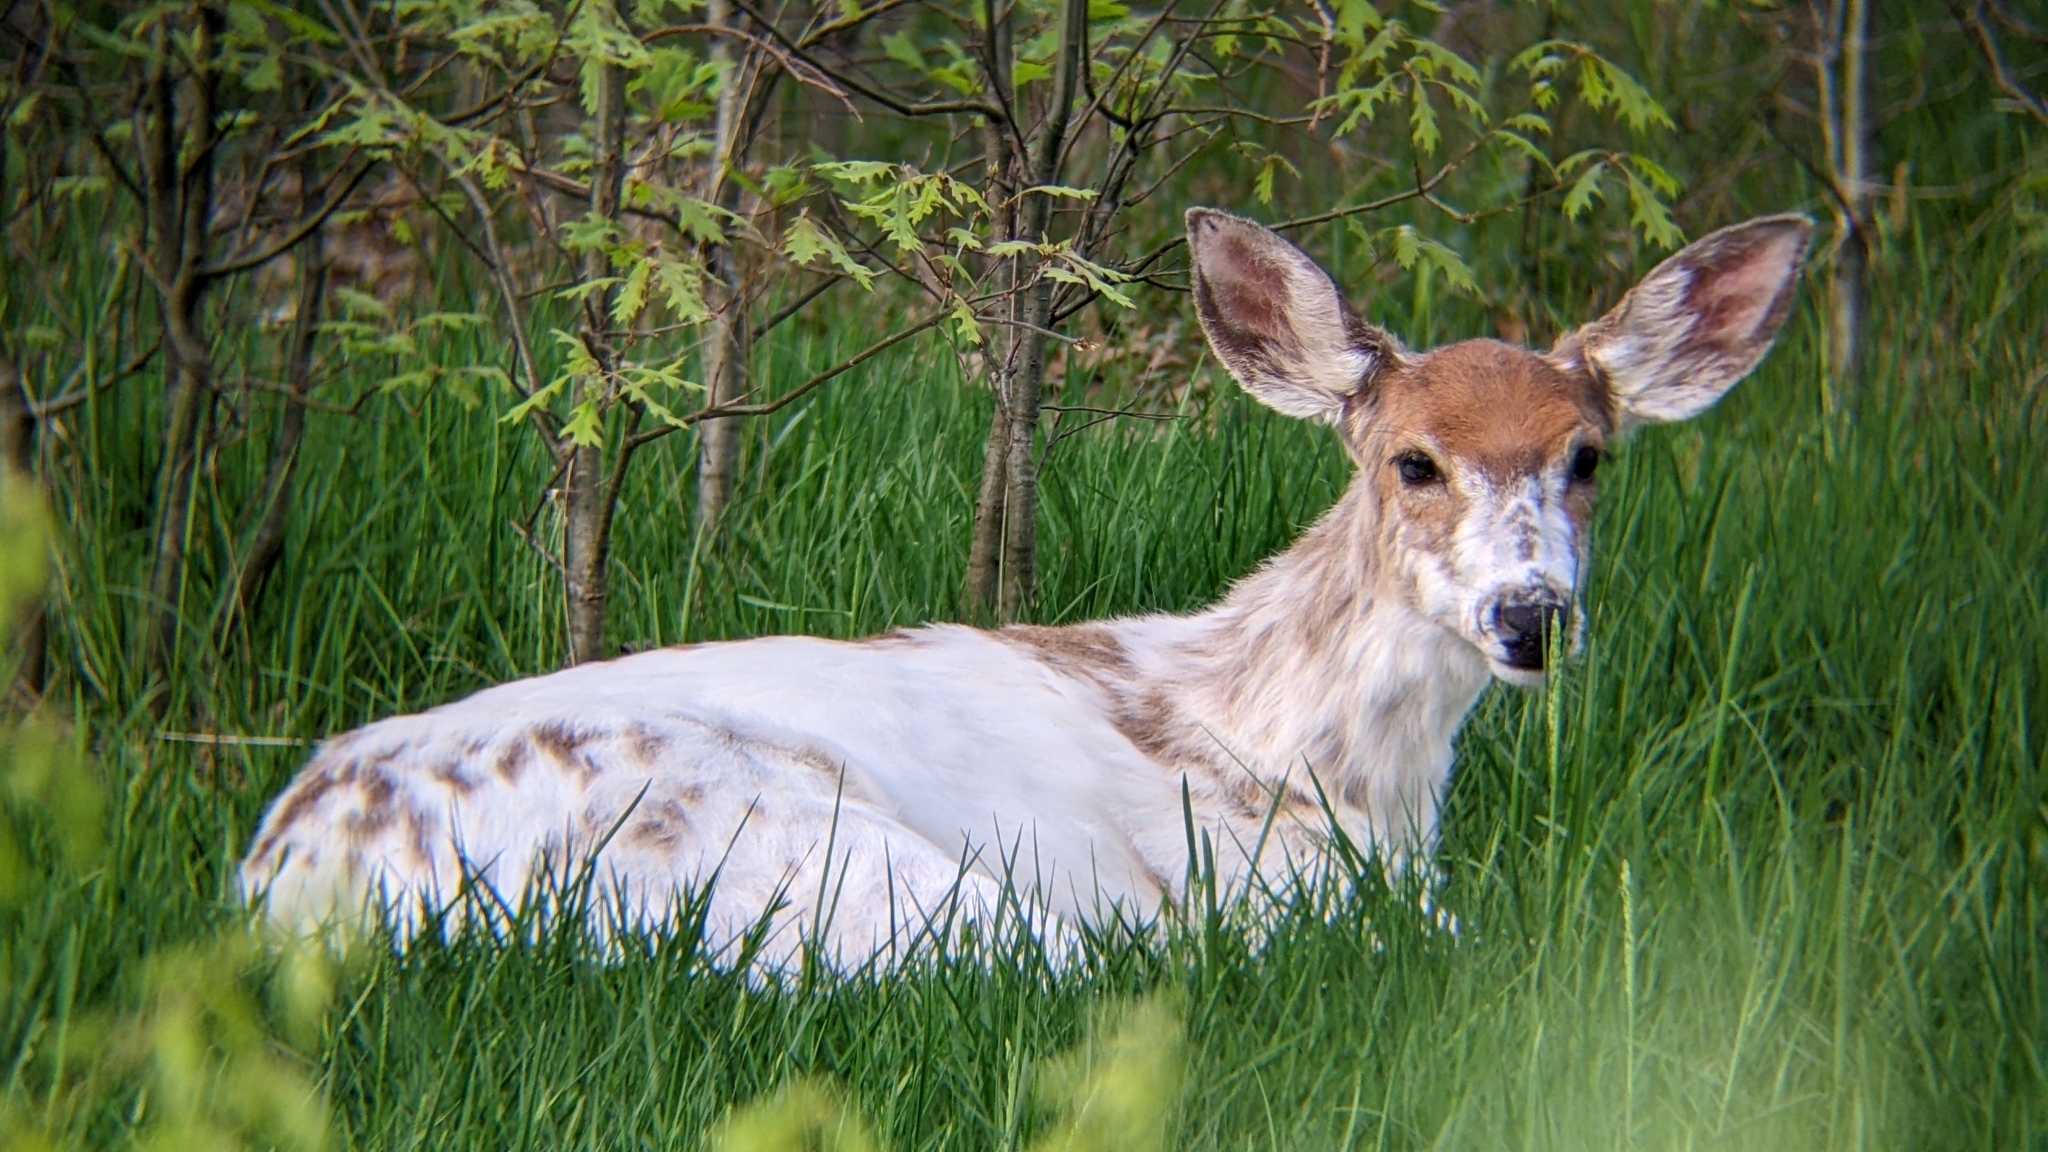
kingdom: Animalia
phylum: Chordata
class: Mammalia
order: Artiodactyla
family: Cervidae
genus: Odocoileus
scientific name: Odocoileus virginianus
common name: White-tailed deer
